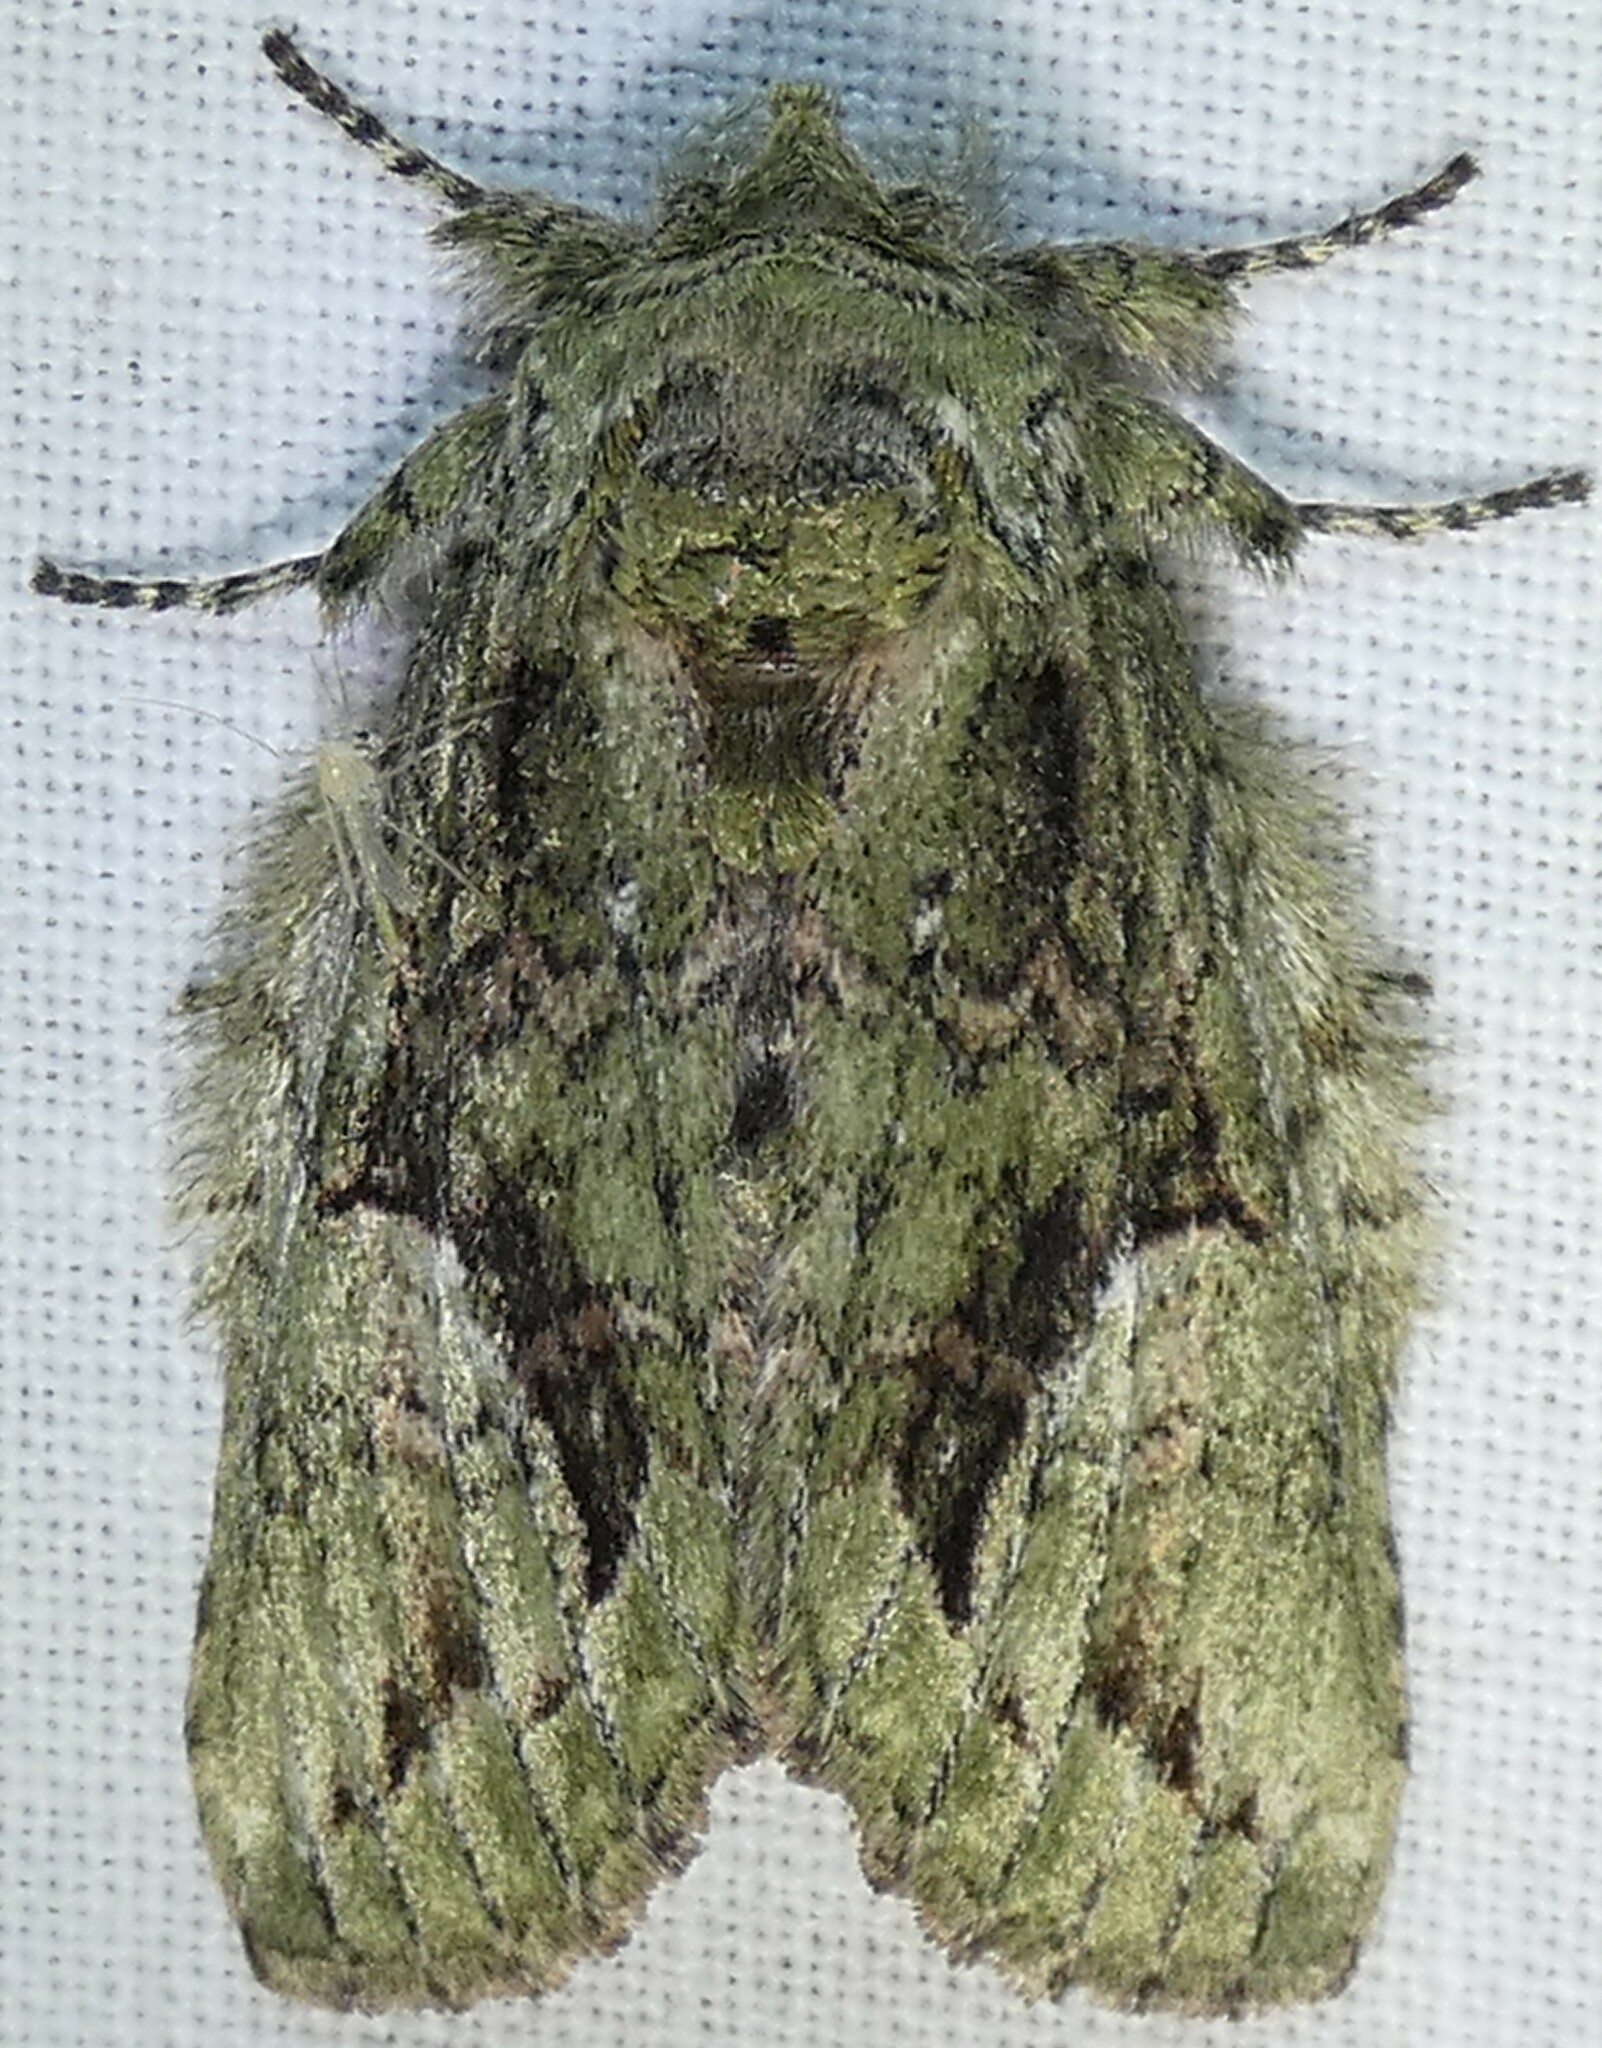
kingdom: Animalia
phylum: Arthropoda
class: Insecta
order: Lepidoptera
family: Notodontidae
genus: Heterocampa
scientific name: Heterocampa umbrata
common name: White-blotched heterocampa
